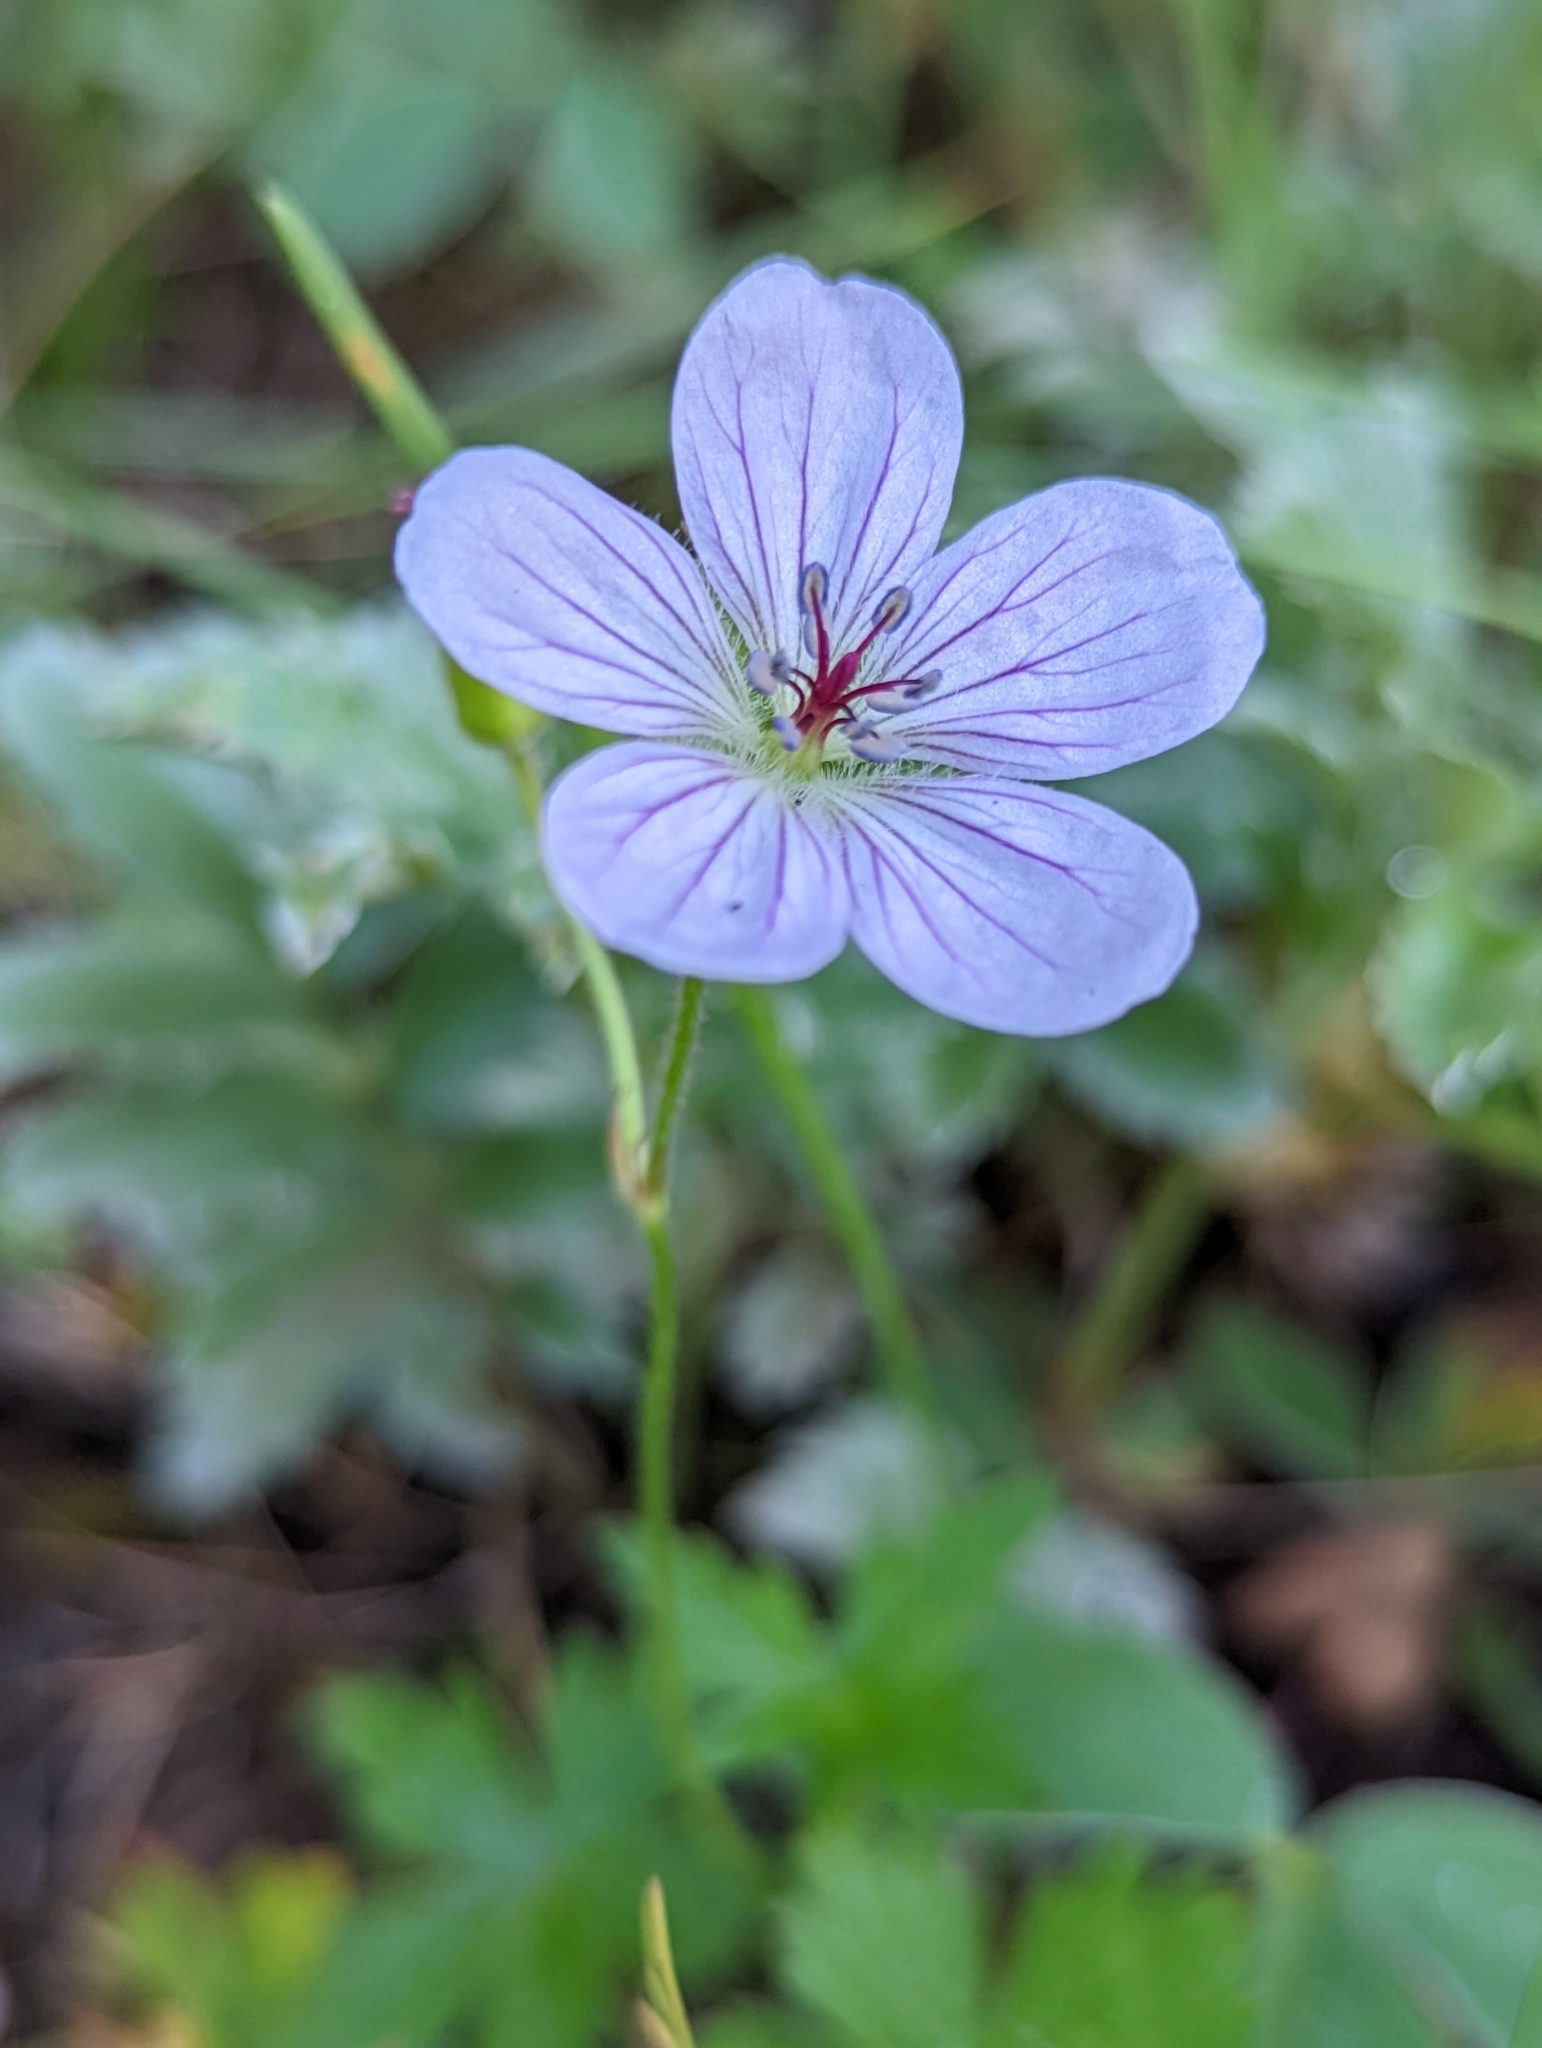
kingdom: Plantae
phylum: Tracheophyta
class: Magnoliopsida
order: Geraniales
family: Geraniaceae
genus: Geranium
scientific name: Geranium richardsonii
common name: Richardson's crane's-bill
